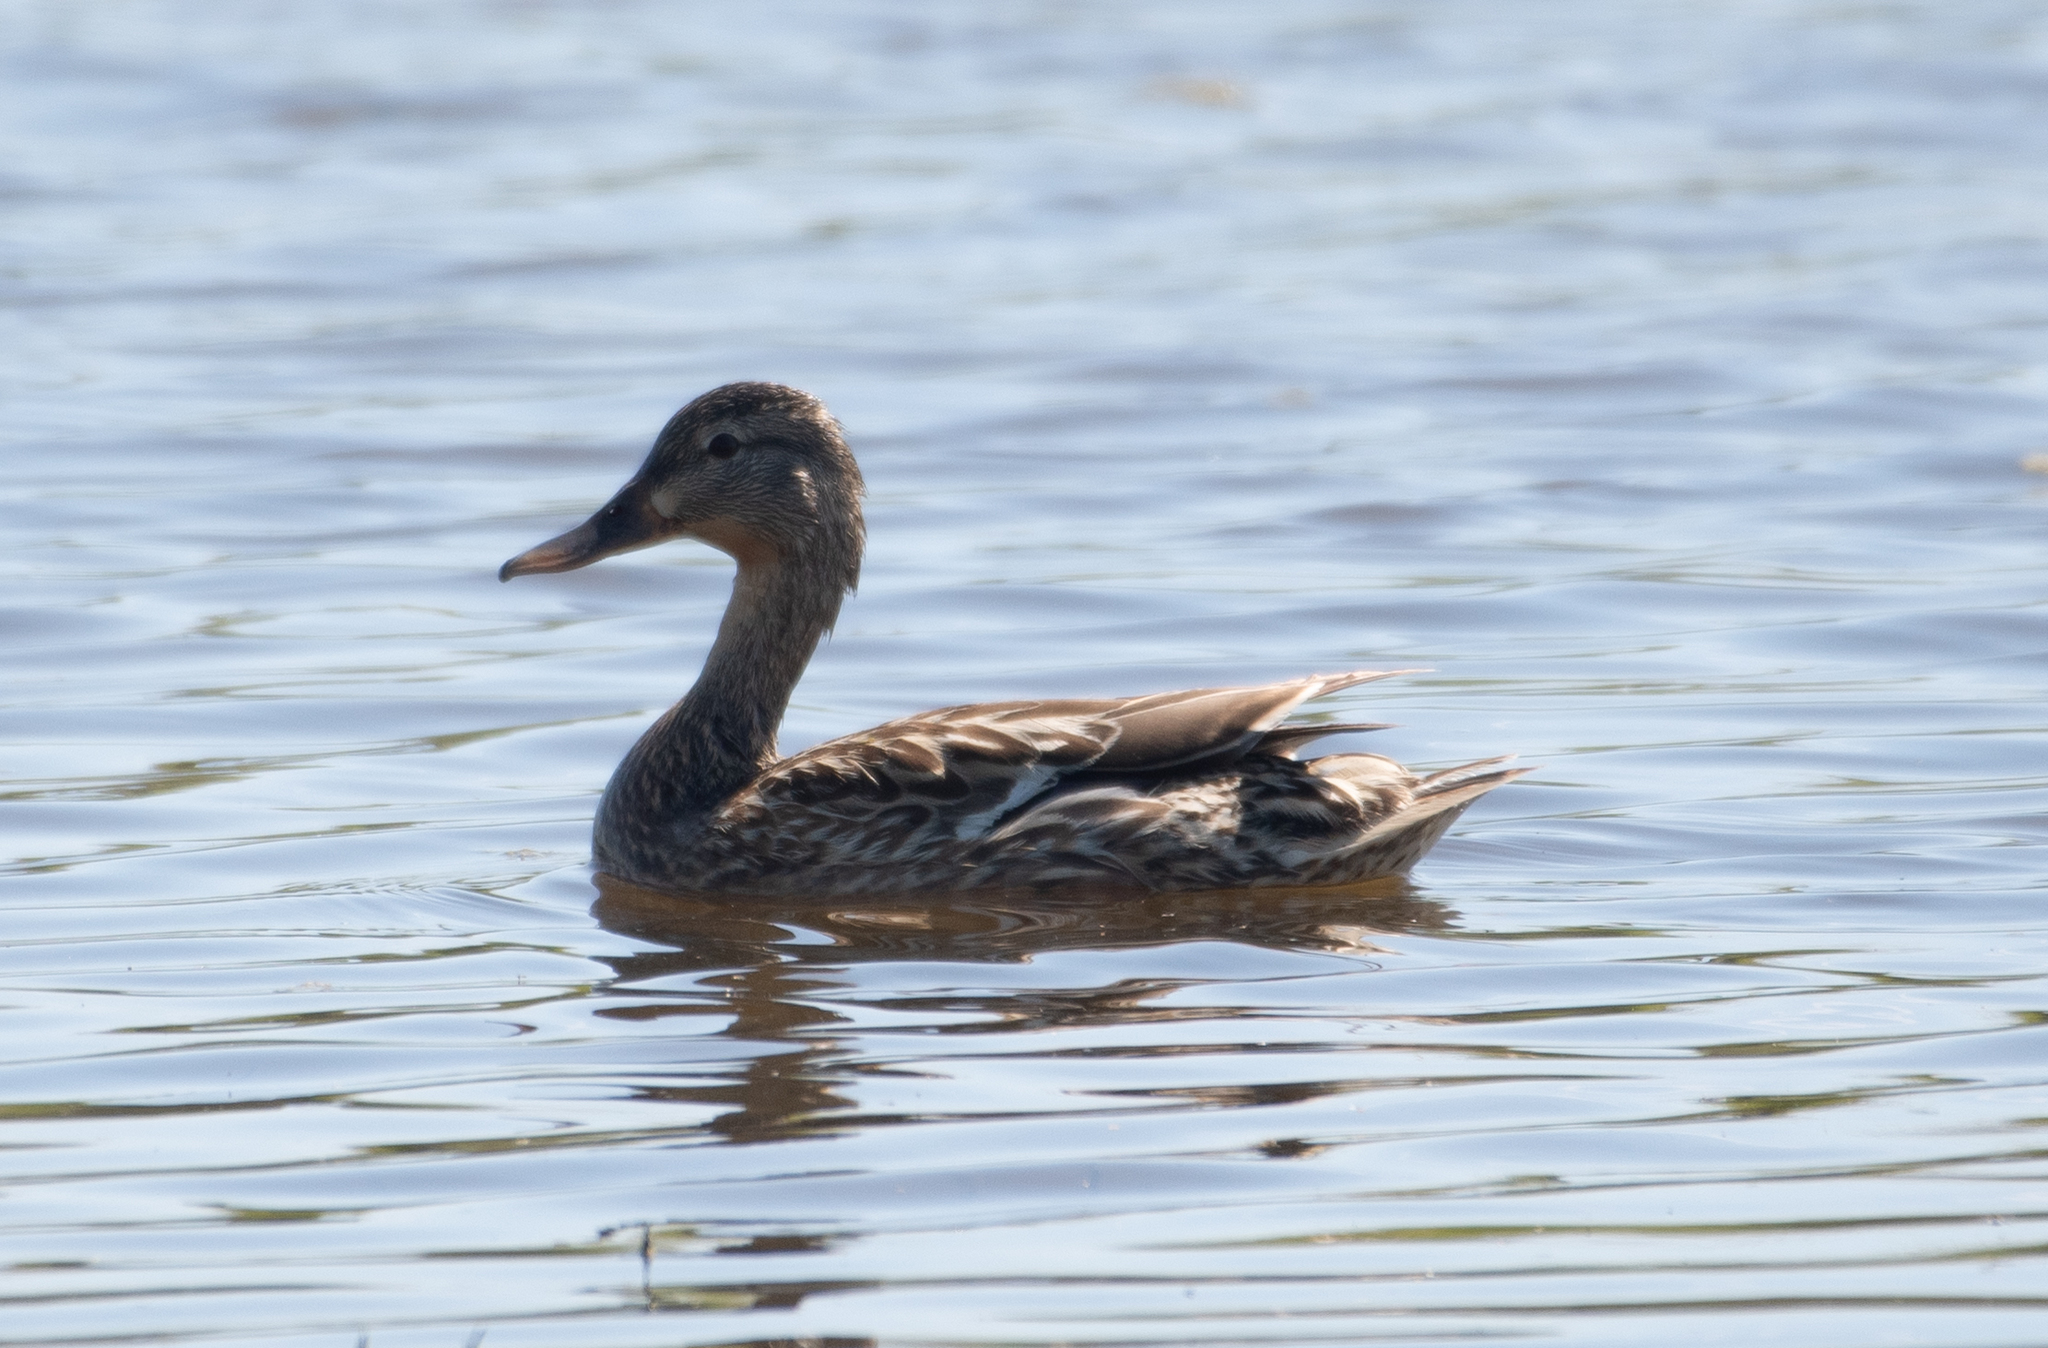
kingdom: Animalia
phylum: Chordata
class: Aves
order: Anseriformes
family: Anatidae
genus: Anas
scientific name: Anas platyrhynchos
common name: Mallard
